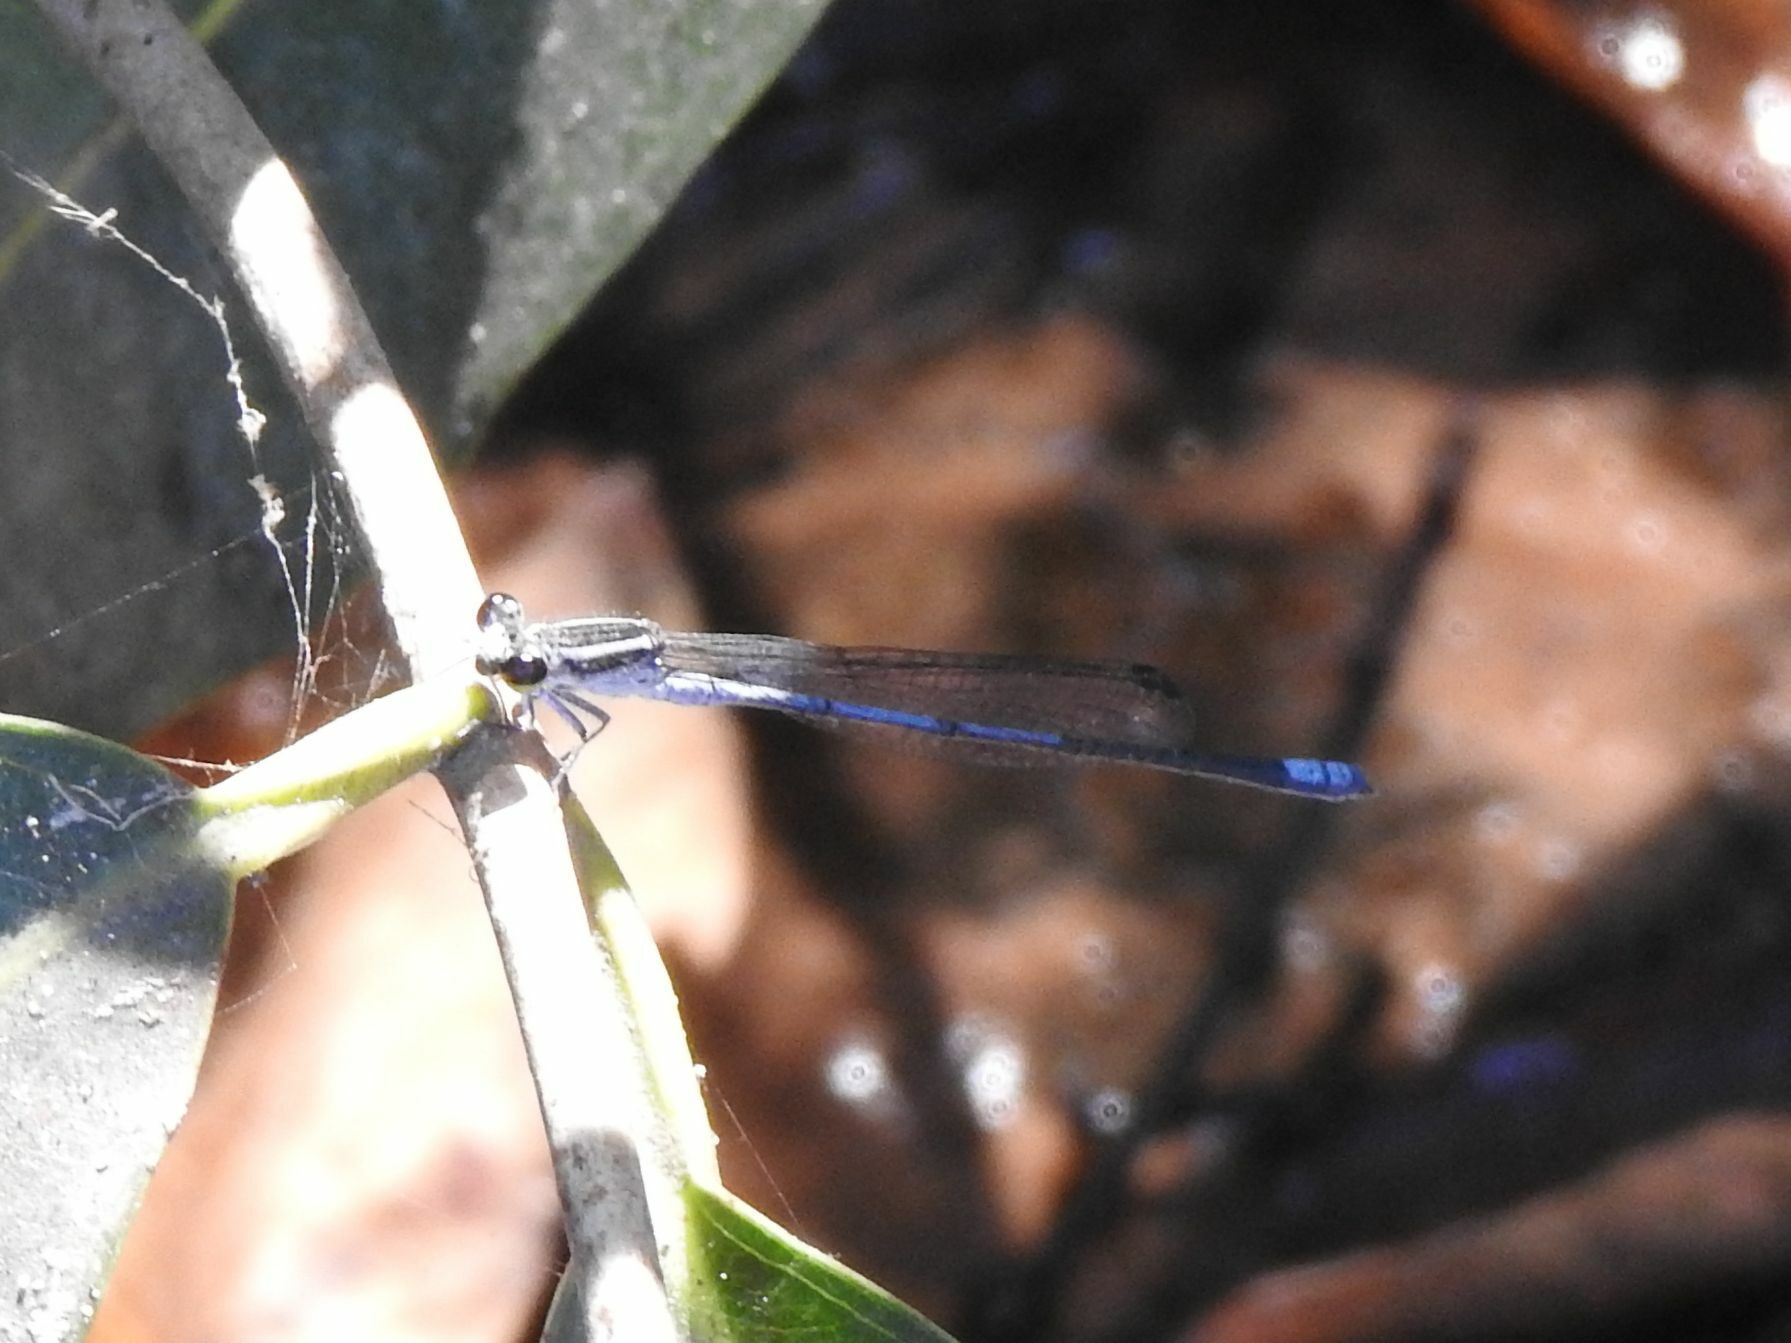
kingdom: Animalia
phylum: Arthropoda
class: Insecta
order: Odonata
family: Coenagrionidae
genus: Pseudagrion
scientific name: Pseudagrion kersteni
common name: Powder-faced sprite
